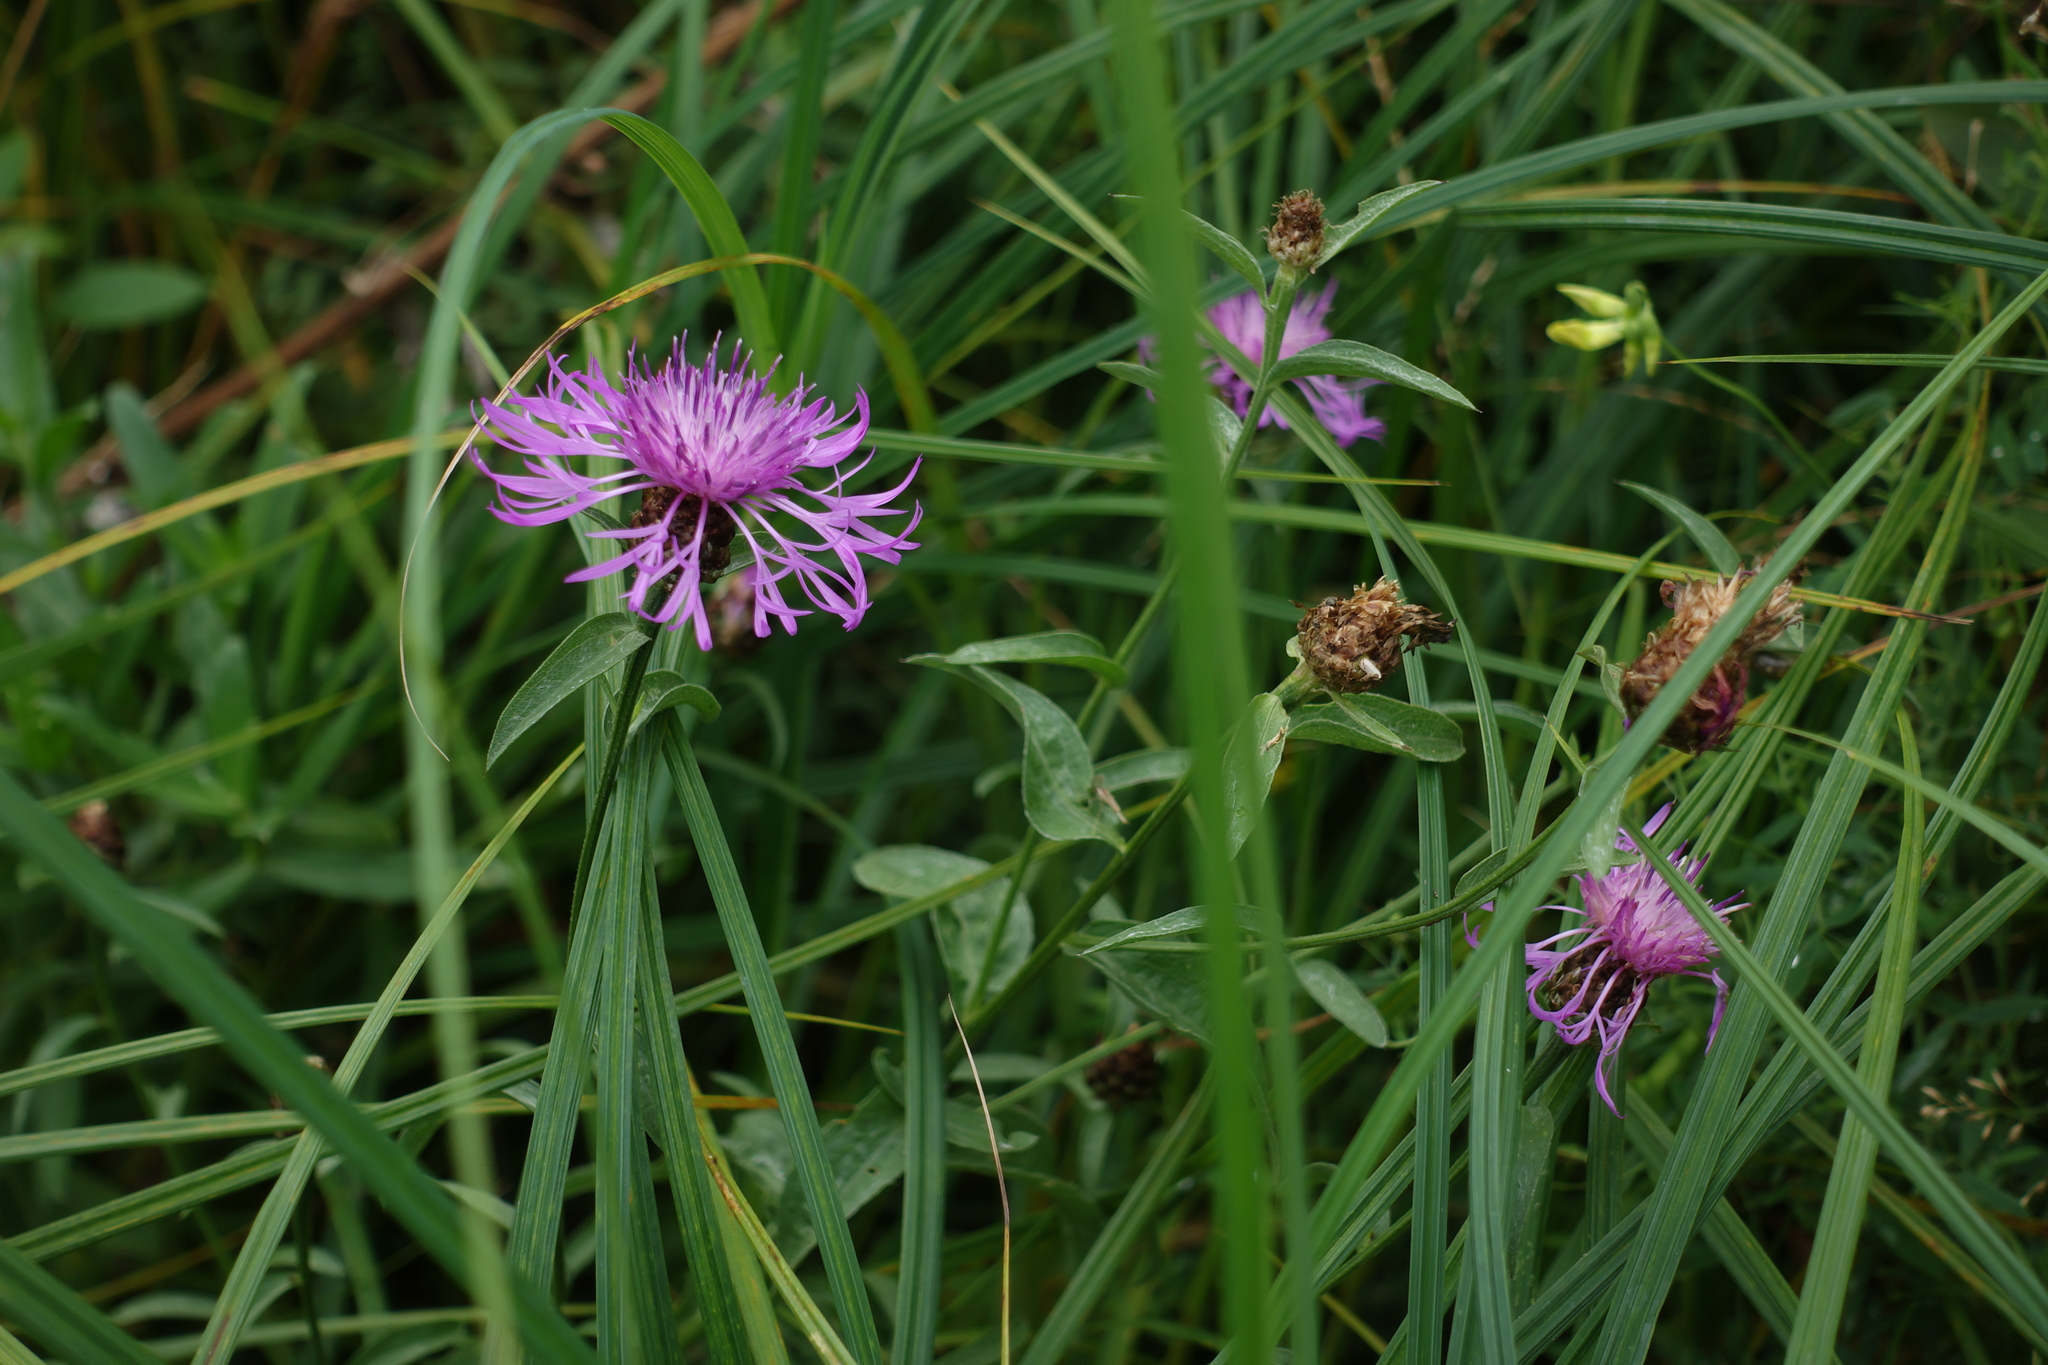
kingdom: Plantae
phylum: Tracheophyta
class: Magnoliopsida
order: Asterales
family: Asteraceae
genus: Centaurea
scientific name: Centaurea jacea
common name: Brown knapweed
